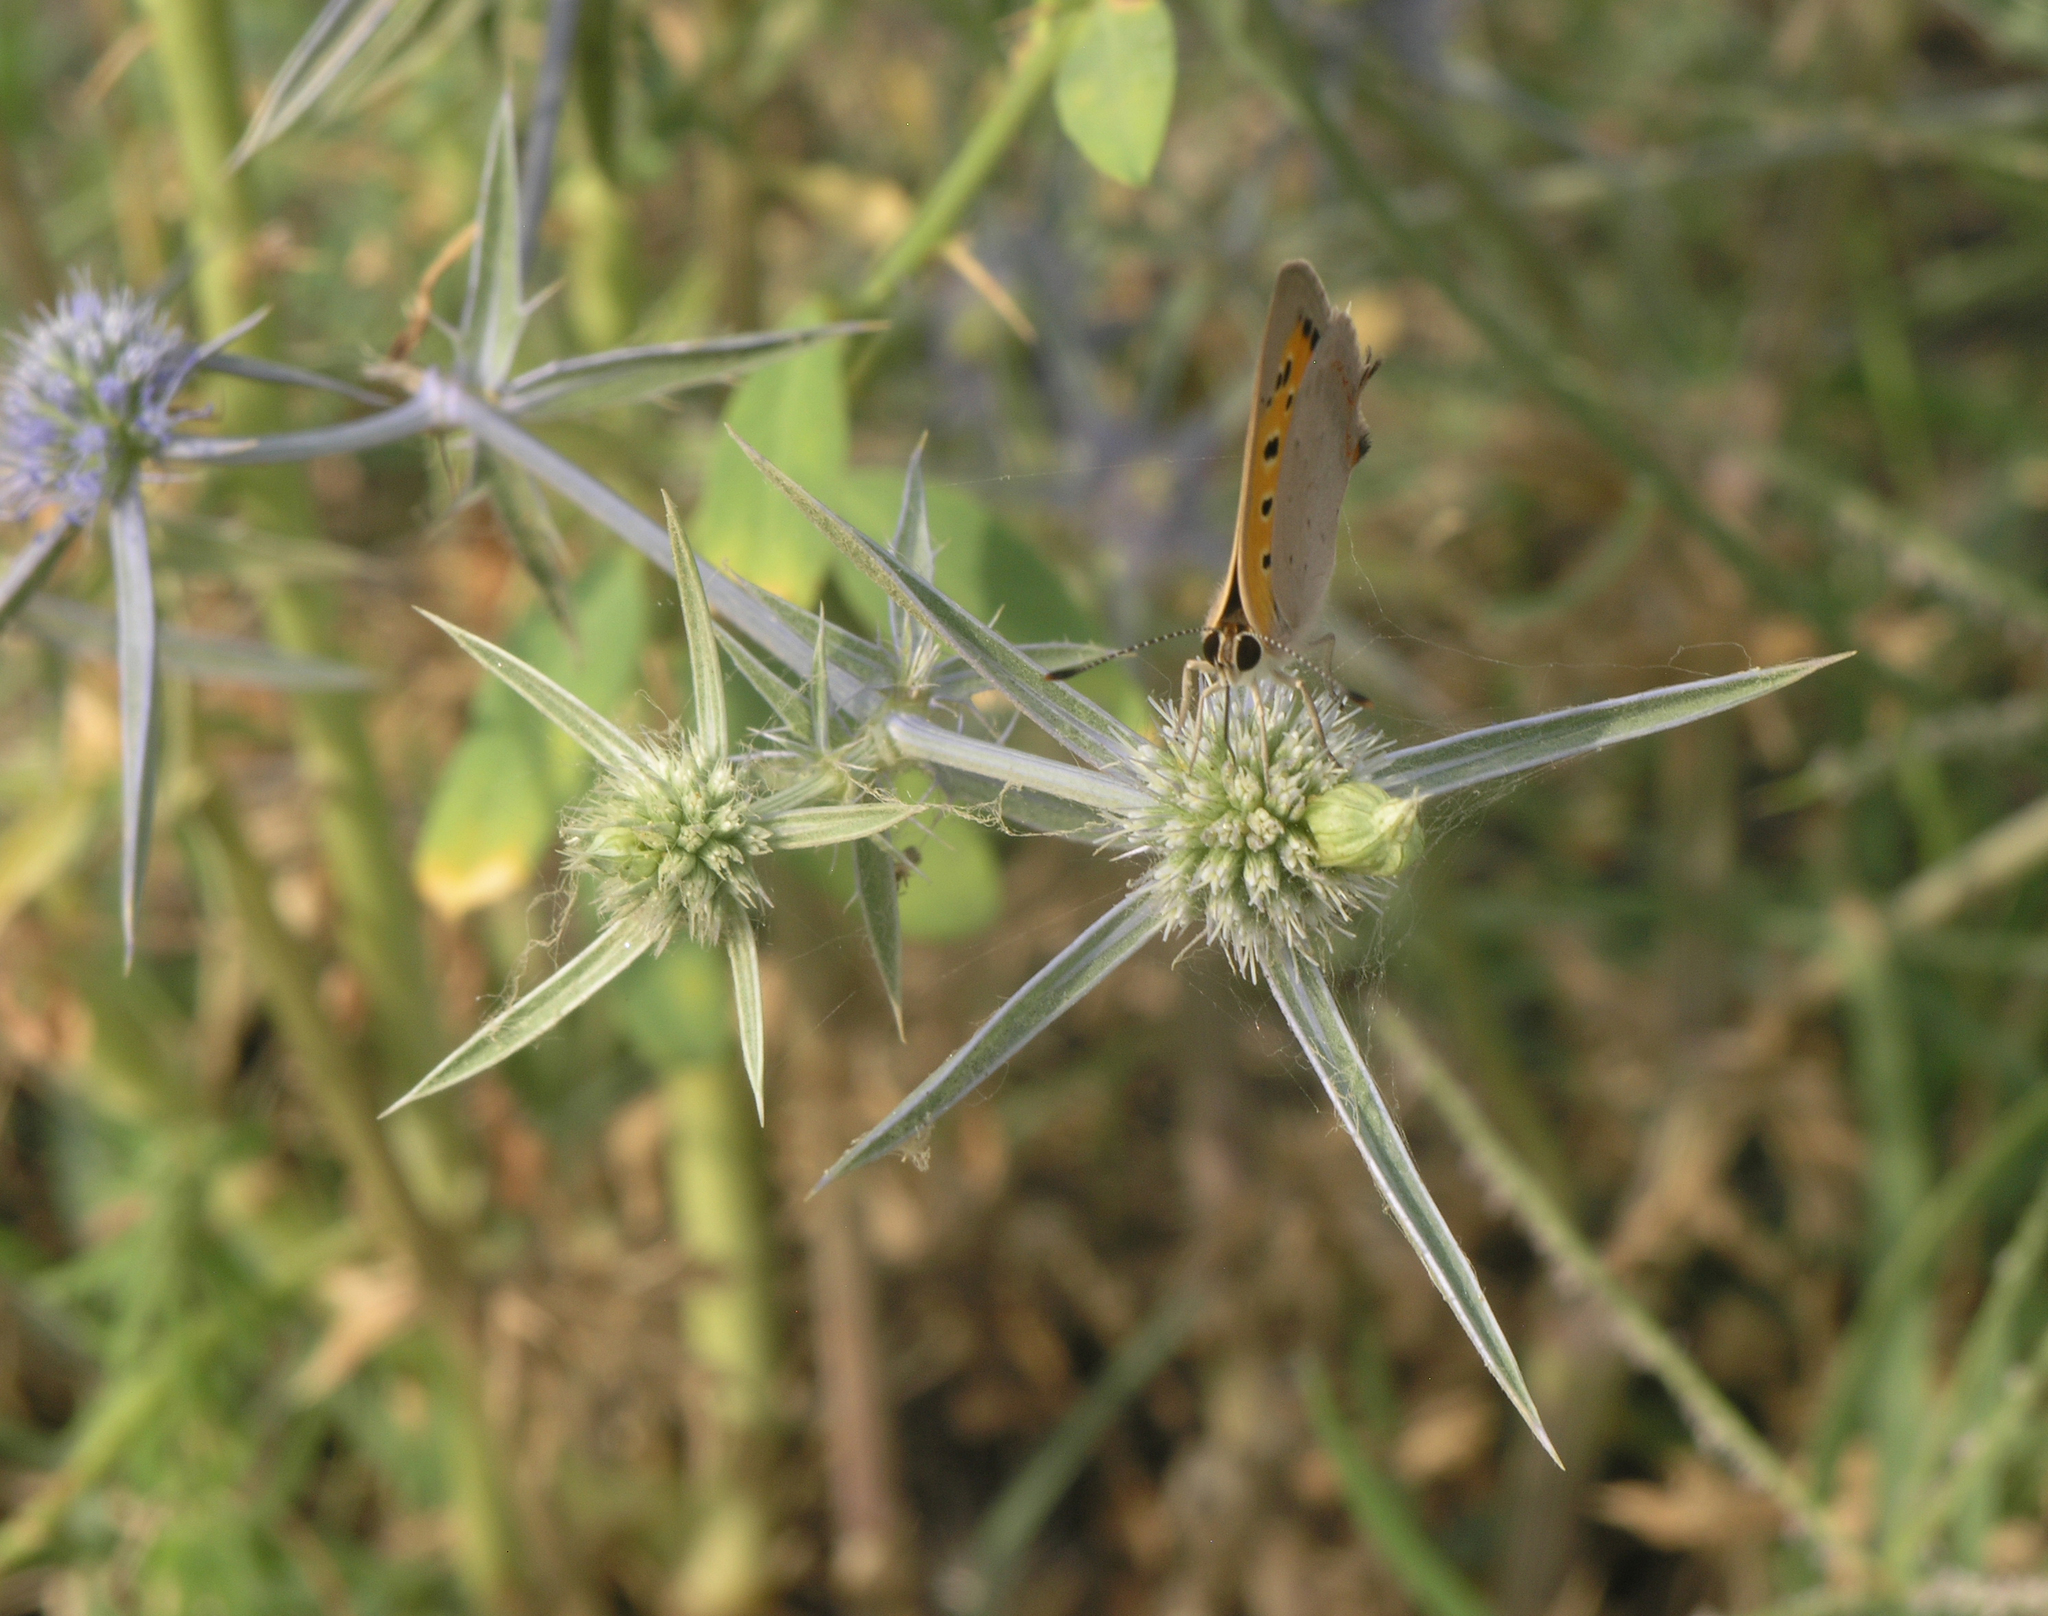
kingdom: Plantae
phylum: Tracheophyta
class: Magnoliopsida
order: Apiales
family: Apiaceae
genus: Eryngium
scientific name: Eryngium caeruleum
